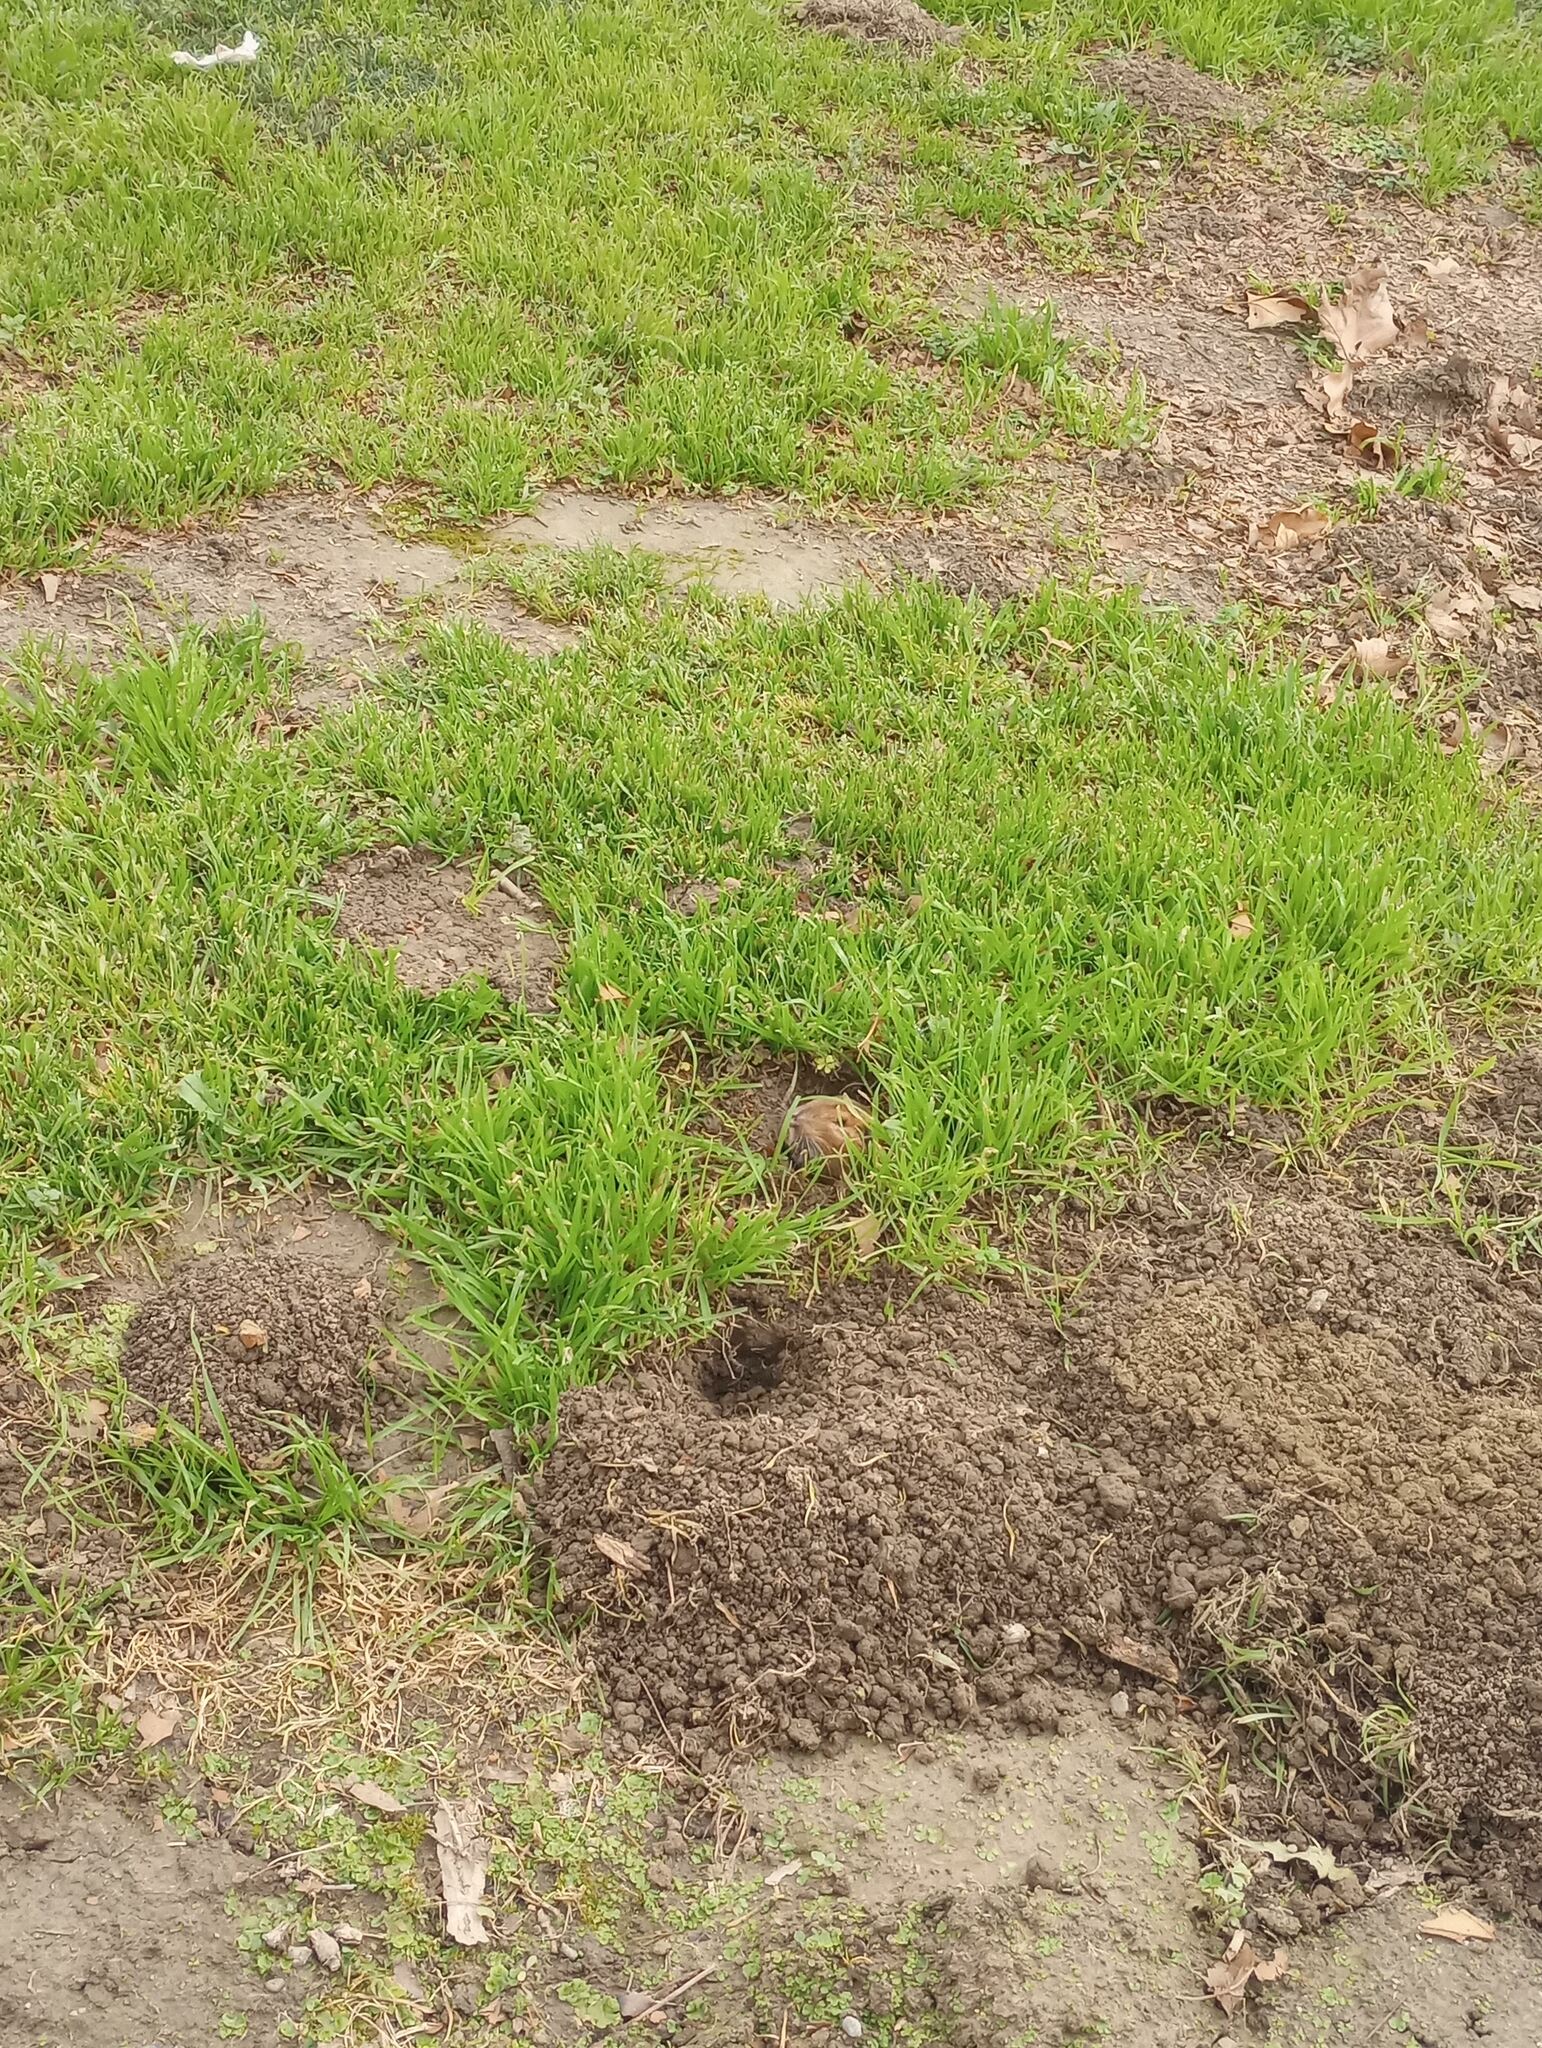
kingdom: Animalia
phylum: Chordata
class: Mammalia
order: Rodentia
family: Geomyidae
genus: Thomomys
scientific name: Thomomys bottae
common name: Botta's pocket gopher
